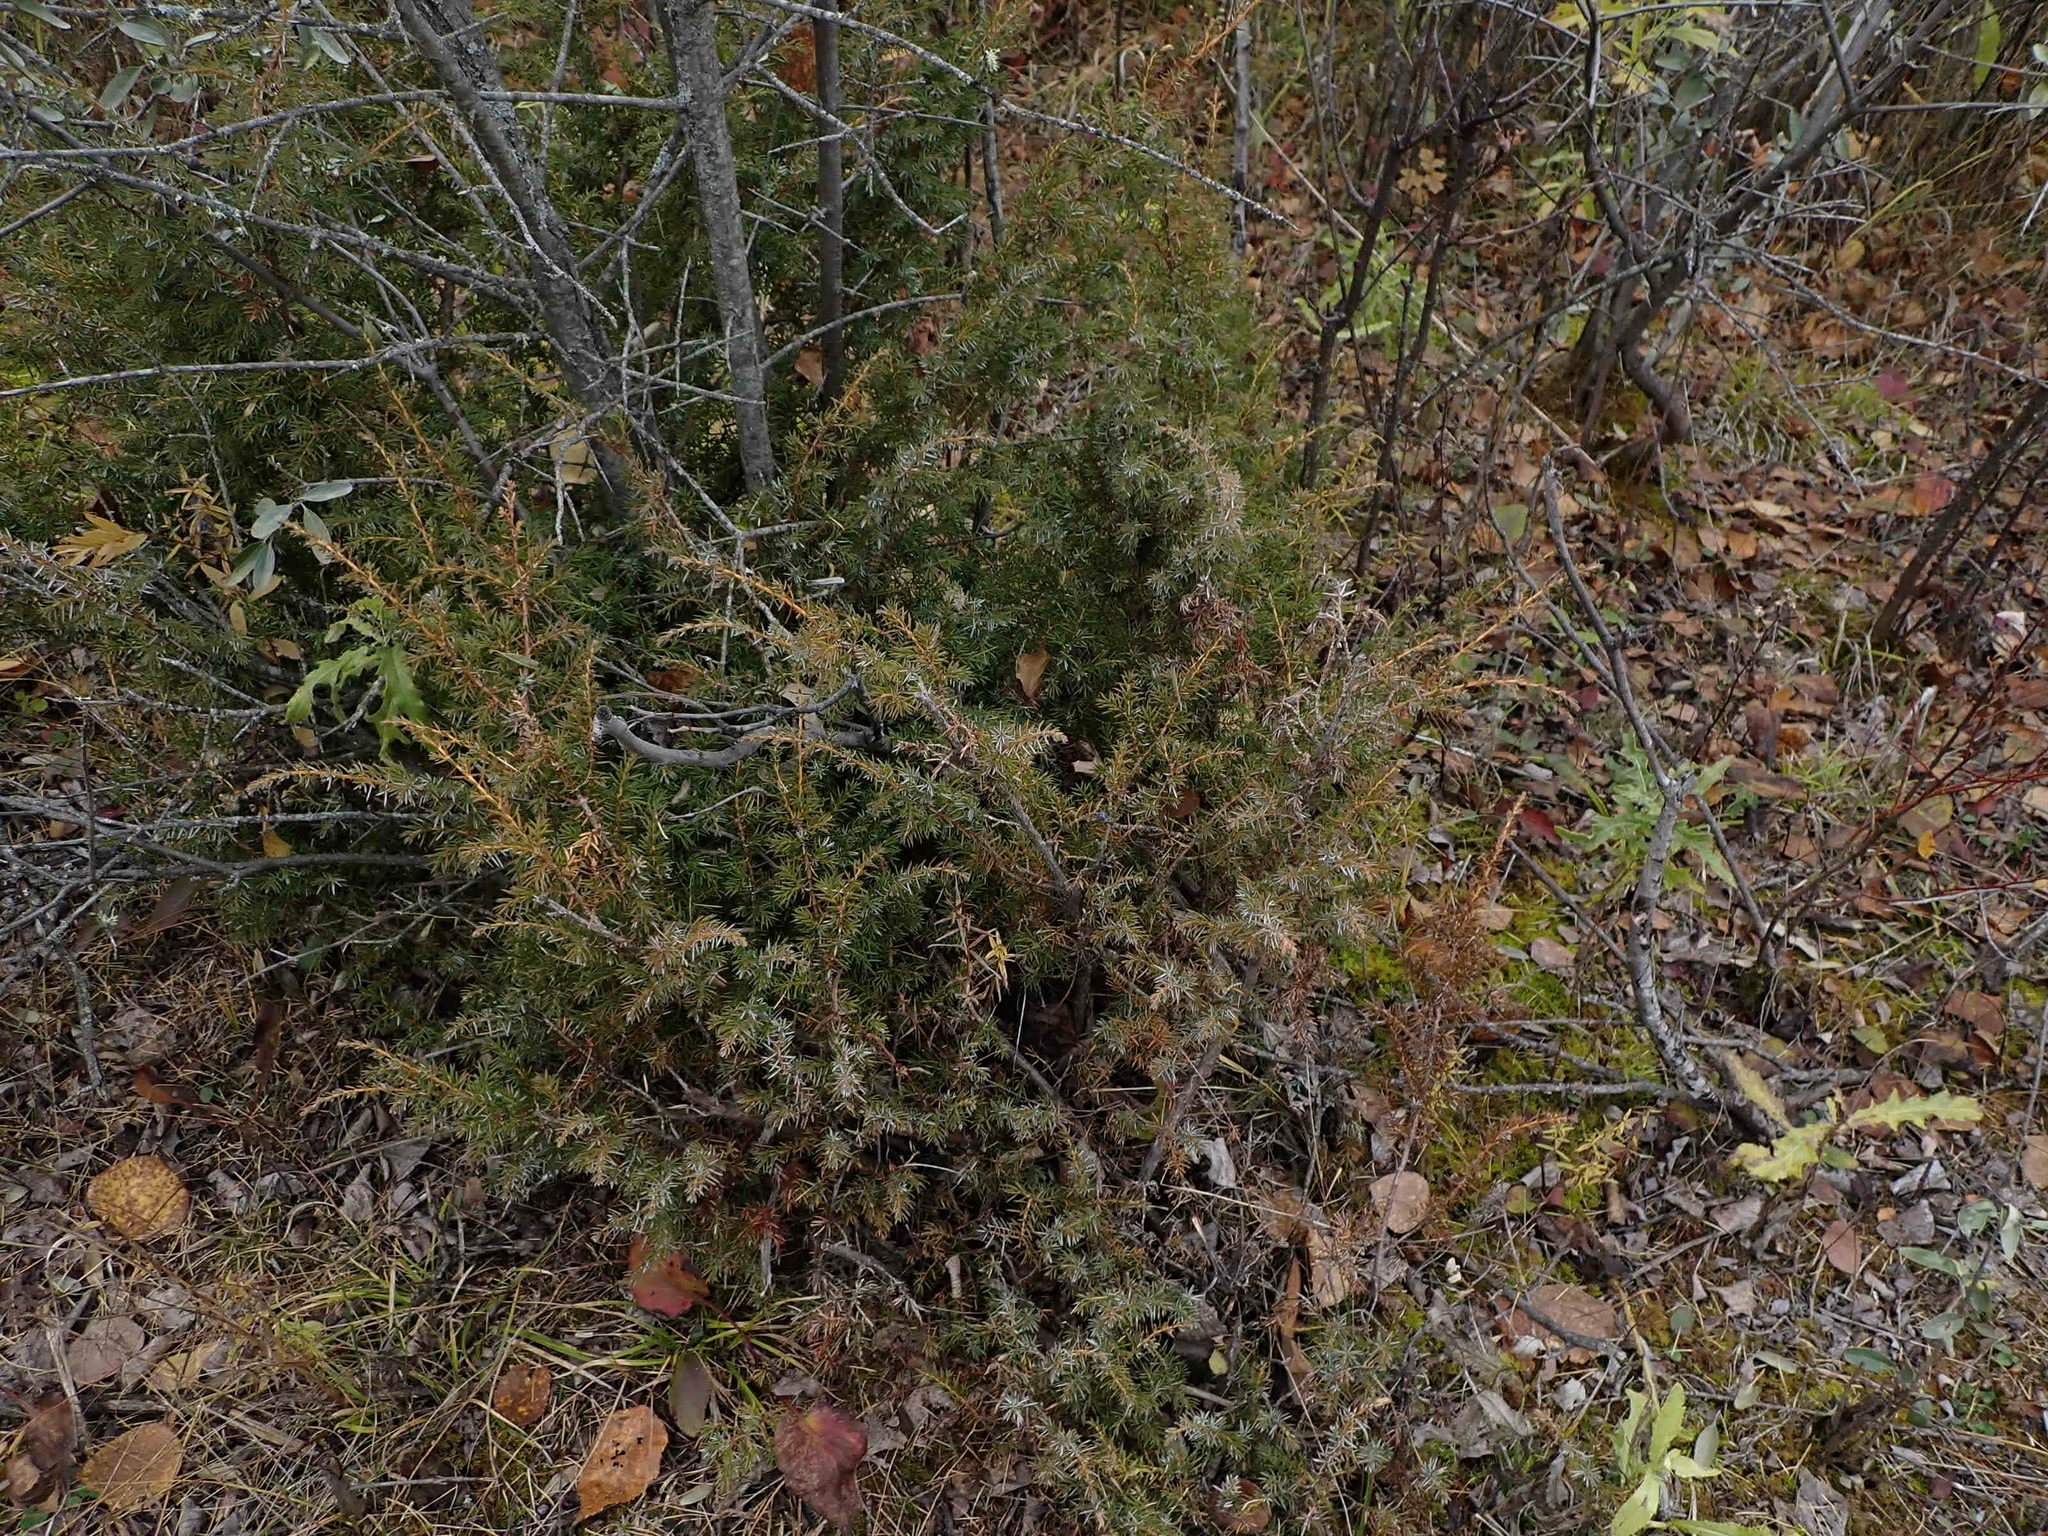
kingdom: Plantae
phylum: Tracheophyta
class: Pinopsida
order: Pinales
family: Cupressaceae
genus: Juniperus
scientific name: Juniperus communis
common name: Common juniper
